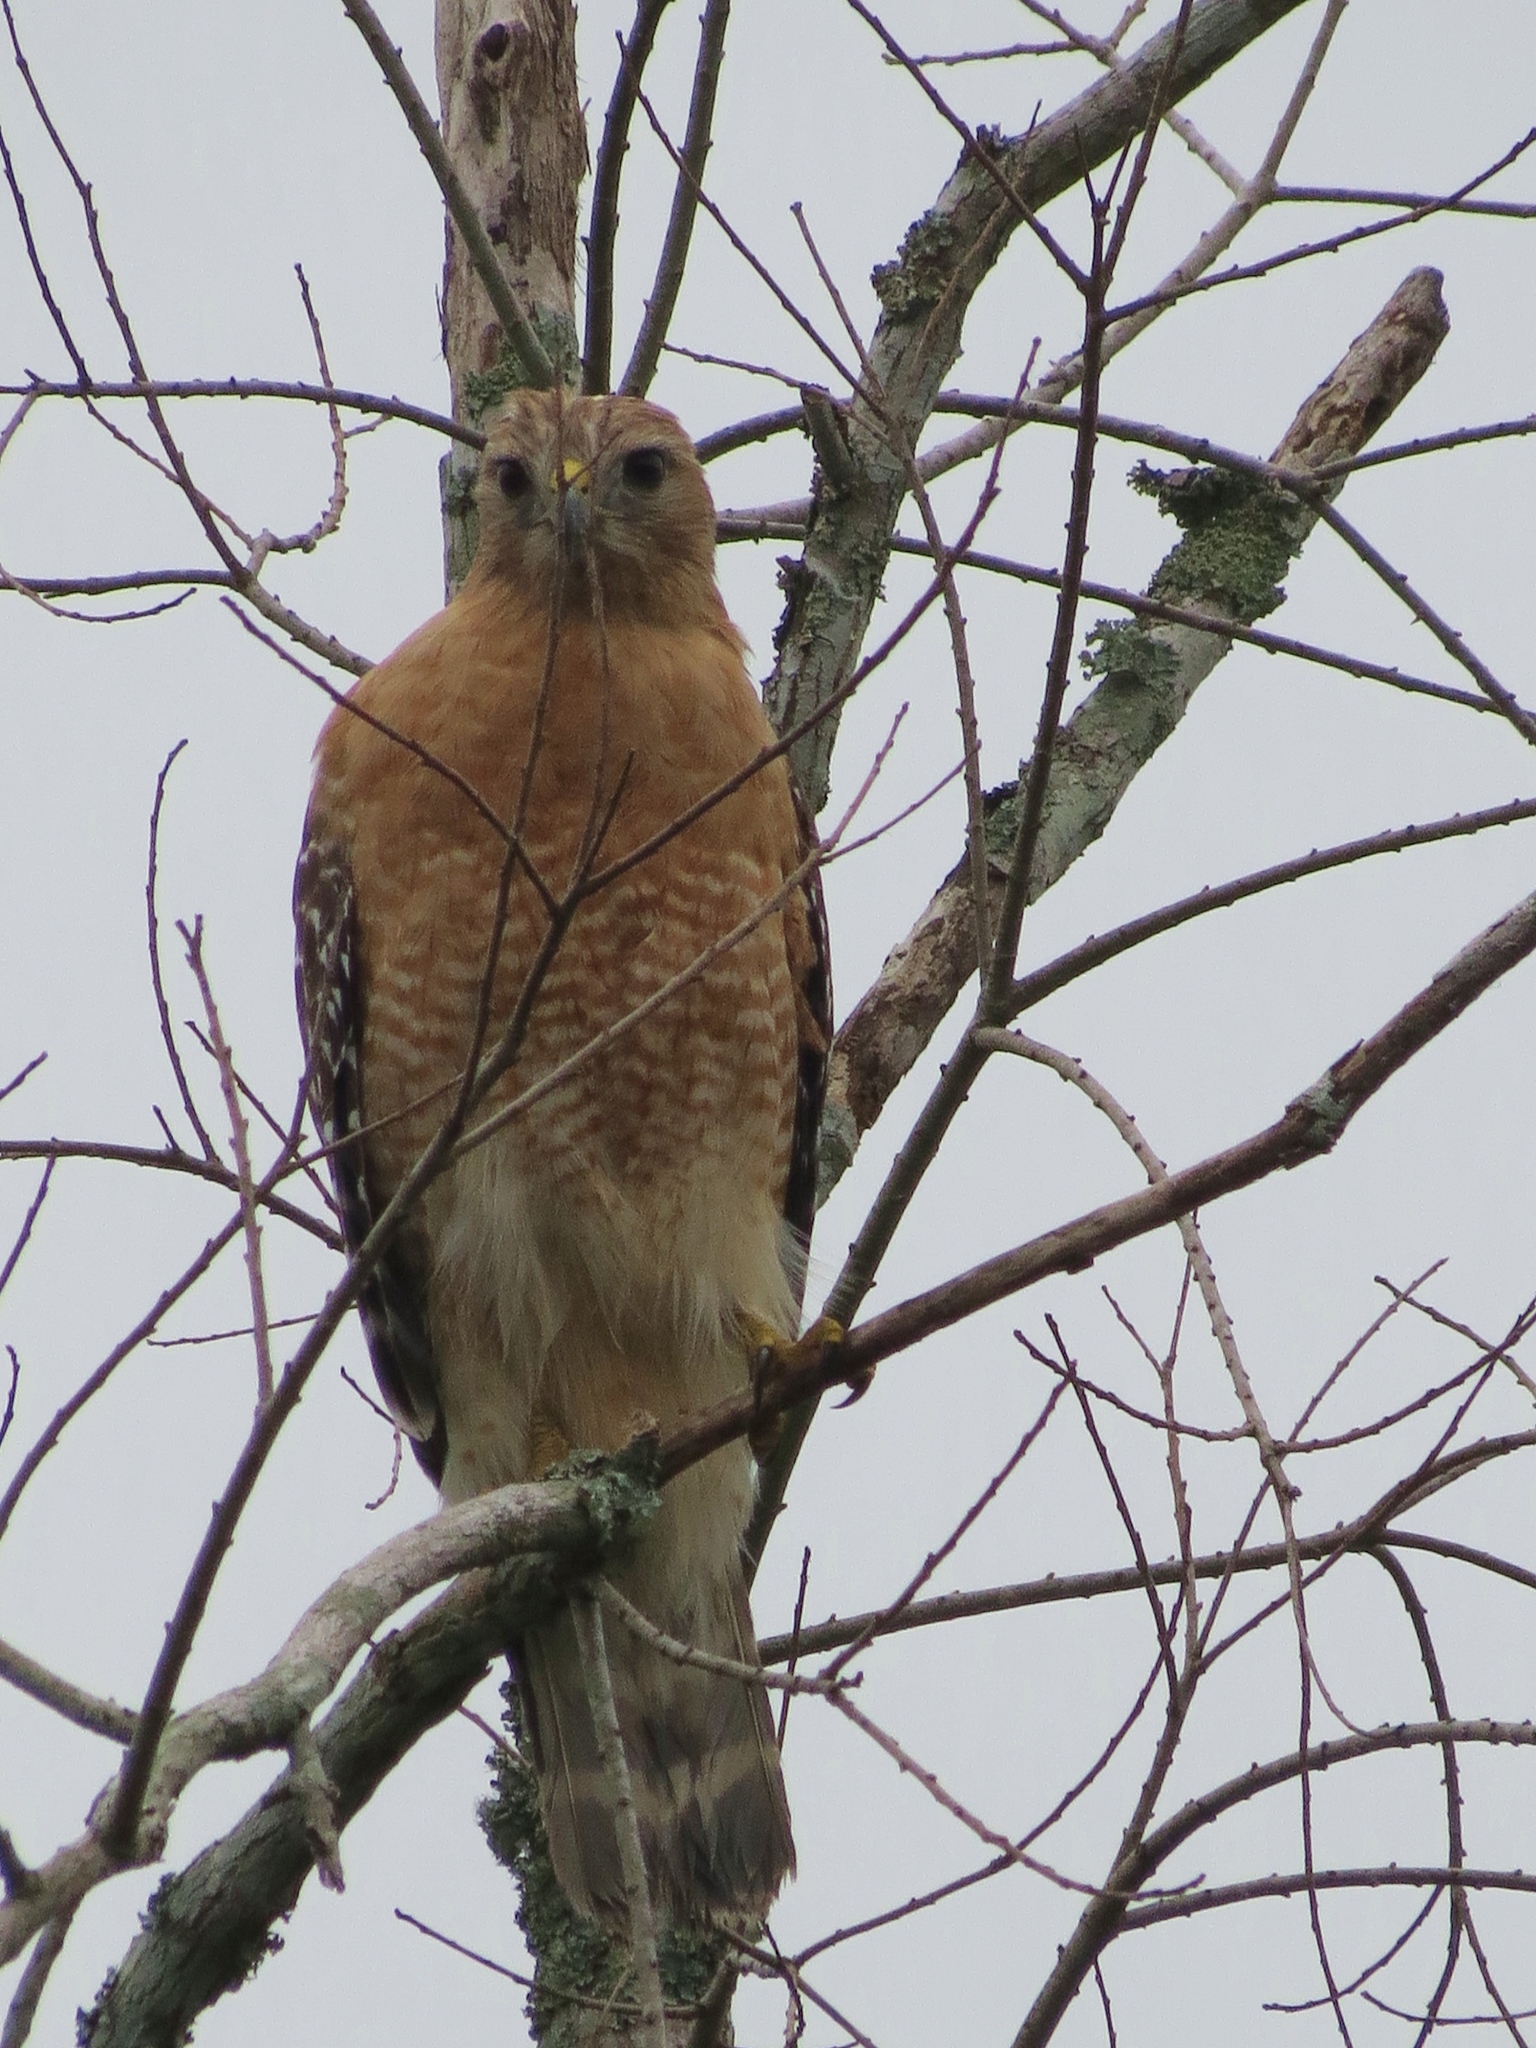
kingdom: Animalia
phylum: Chordata
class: Aves
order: Accipitriformes
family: Accipitridae
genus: Buteo
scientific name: Buteo lineatus
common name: Red-shouldered hawk
